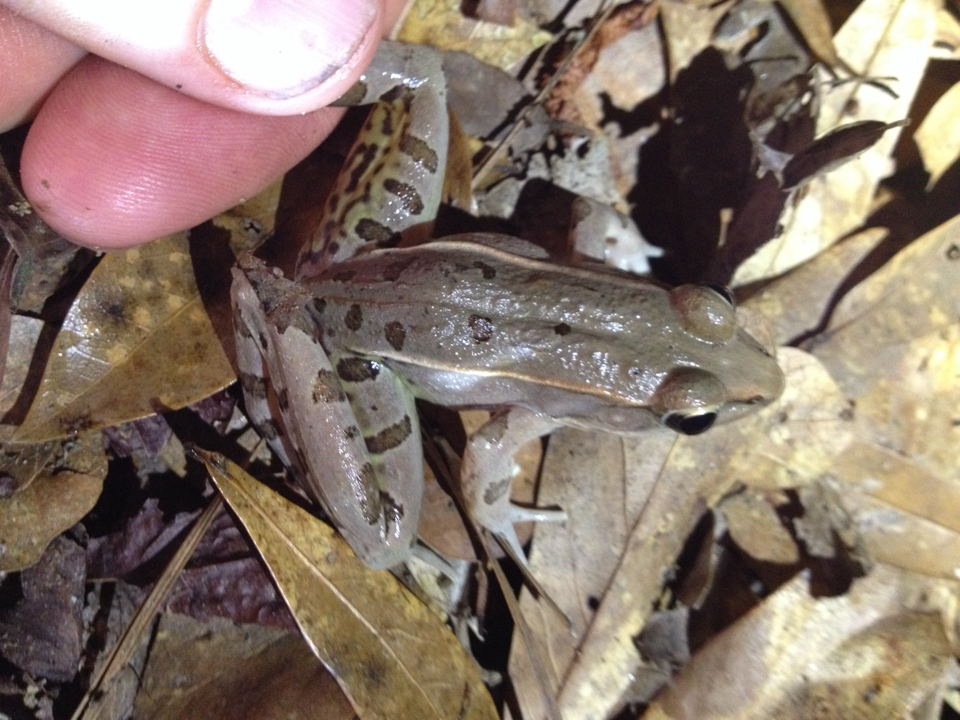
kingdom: Animalia
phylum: Chordata
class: Amphibia
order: Anura
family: Ranidae
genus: Lithobates
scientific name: Lithobates sphenocephalus
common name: Southern leopard frog
